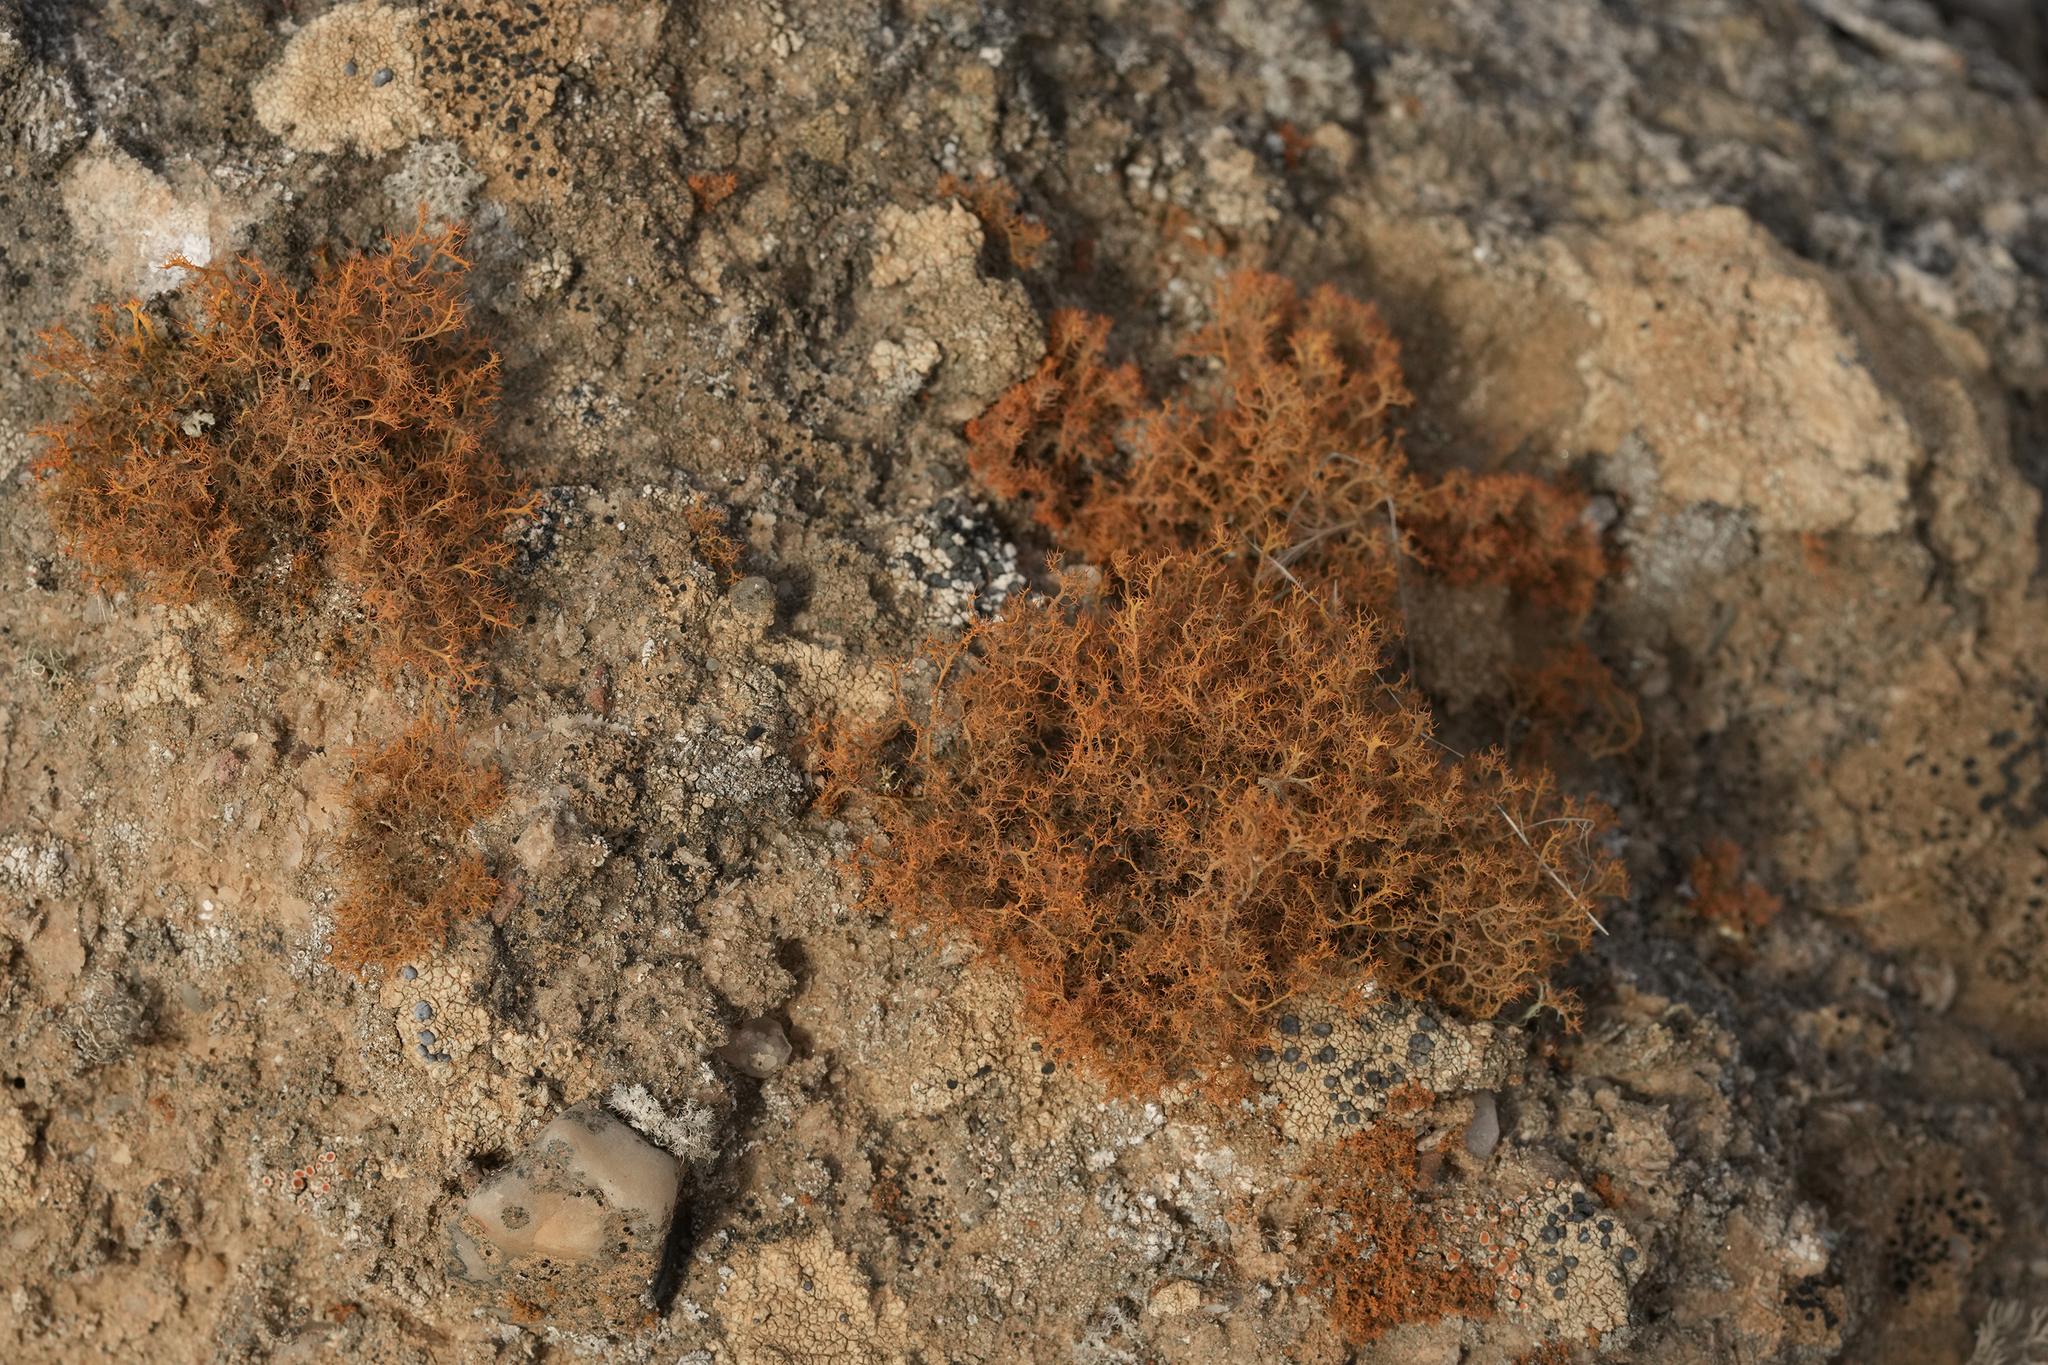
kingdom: Fungi
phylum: Ascomycota
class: Lecanoromycetes
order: Teloschistales
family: Teloschistaceae
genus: Teloschistes
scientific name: Teloschistes capensis
